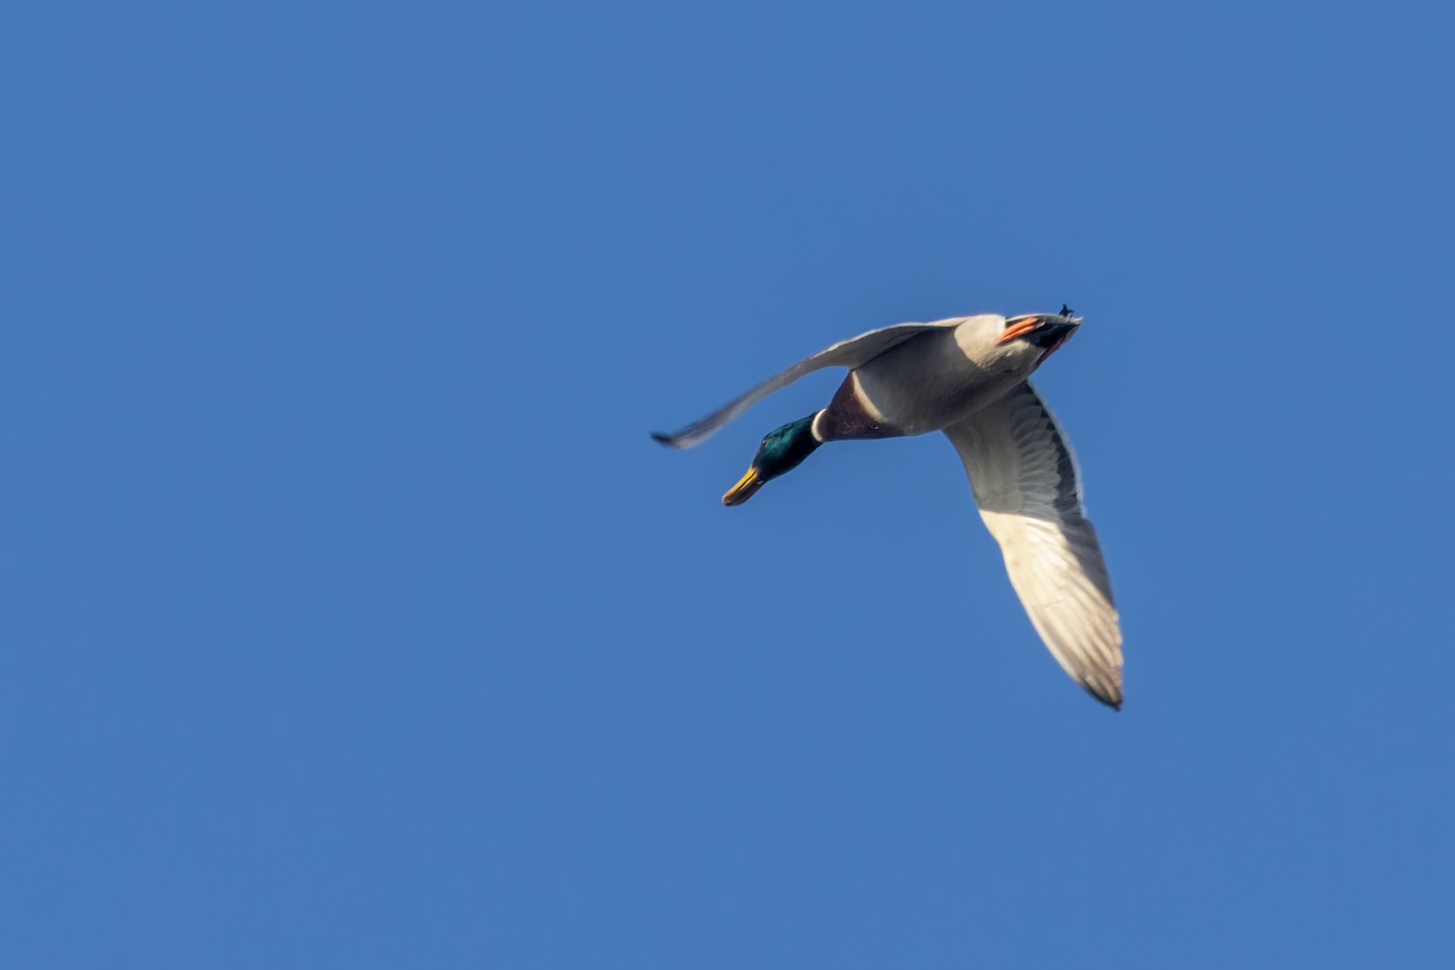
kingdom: Animalia
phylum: Chordata
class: Aves
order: Anseriformes
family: Anatidae
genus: Anas
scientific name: Anas platyrhynchos
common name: Mallard
